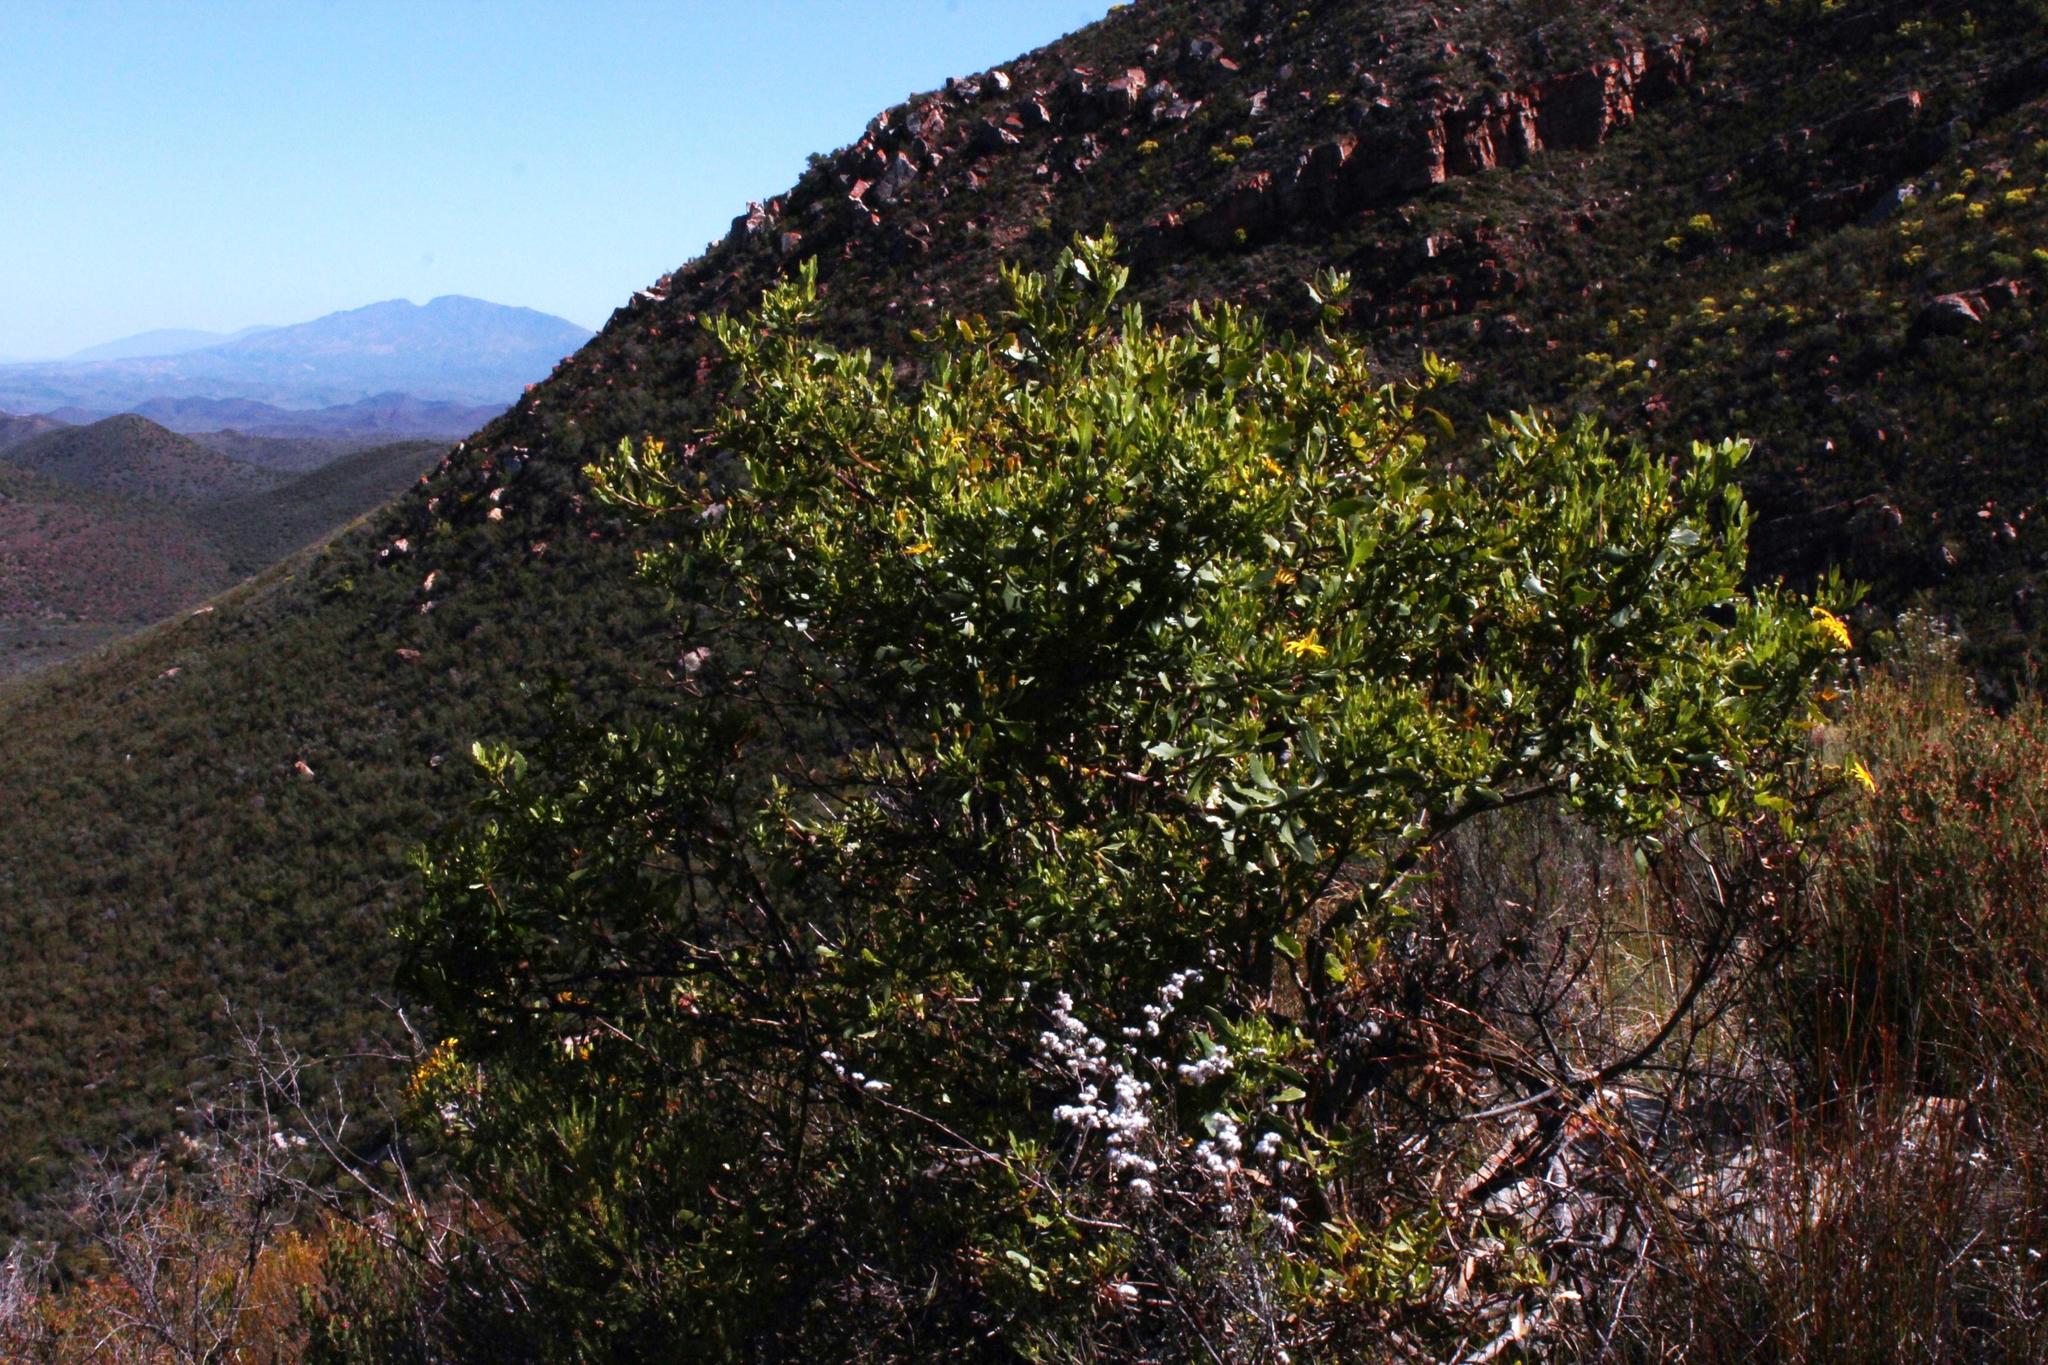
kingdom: Plantae
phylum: Tracheophyta
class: Magnoliopsida
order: Asterales
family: Asteraceae
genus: Osteospermum
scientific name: Osteospermum moniliferum
